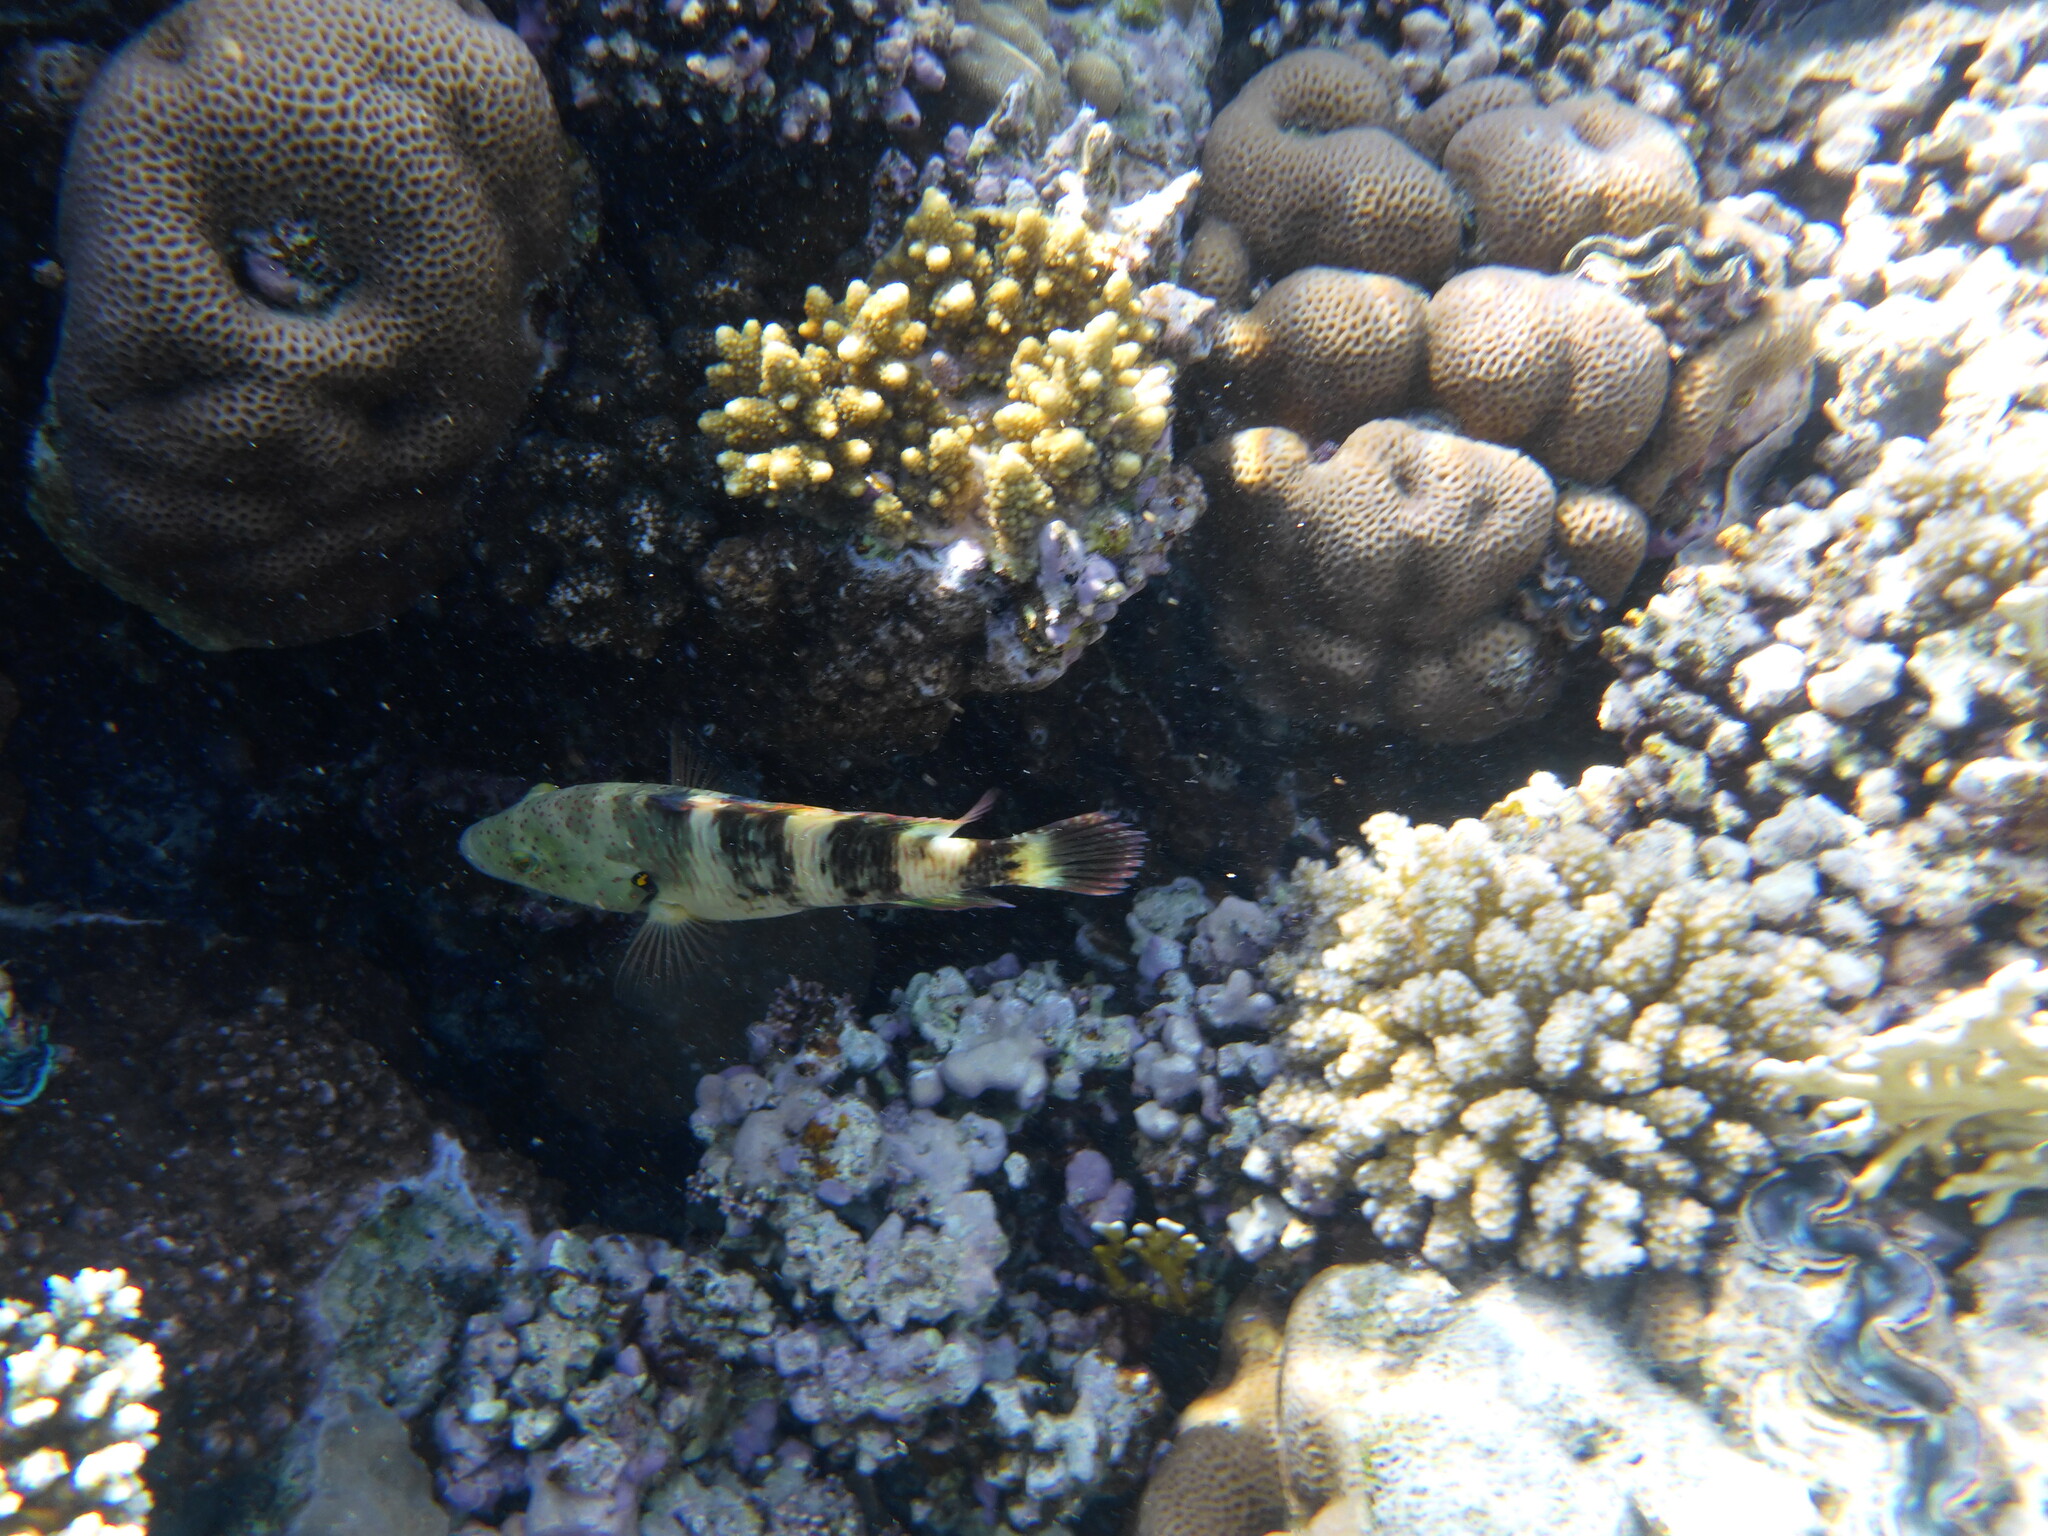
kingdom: Animalia
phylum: Chordata
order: Perciformes
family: Labridae
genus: Cheilinus
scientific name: Cheilinus lunulatus
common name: Broomtail wrasse
